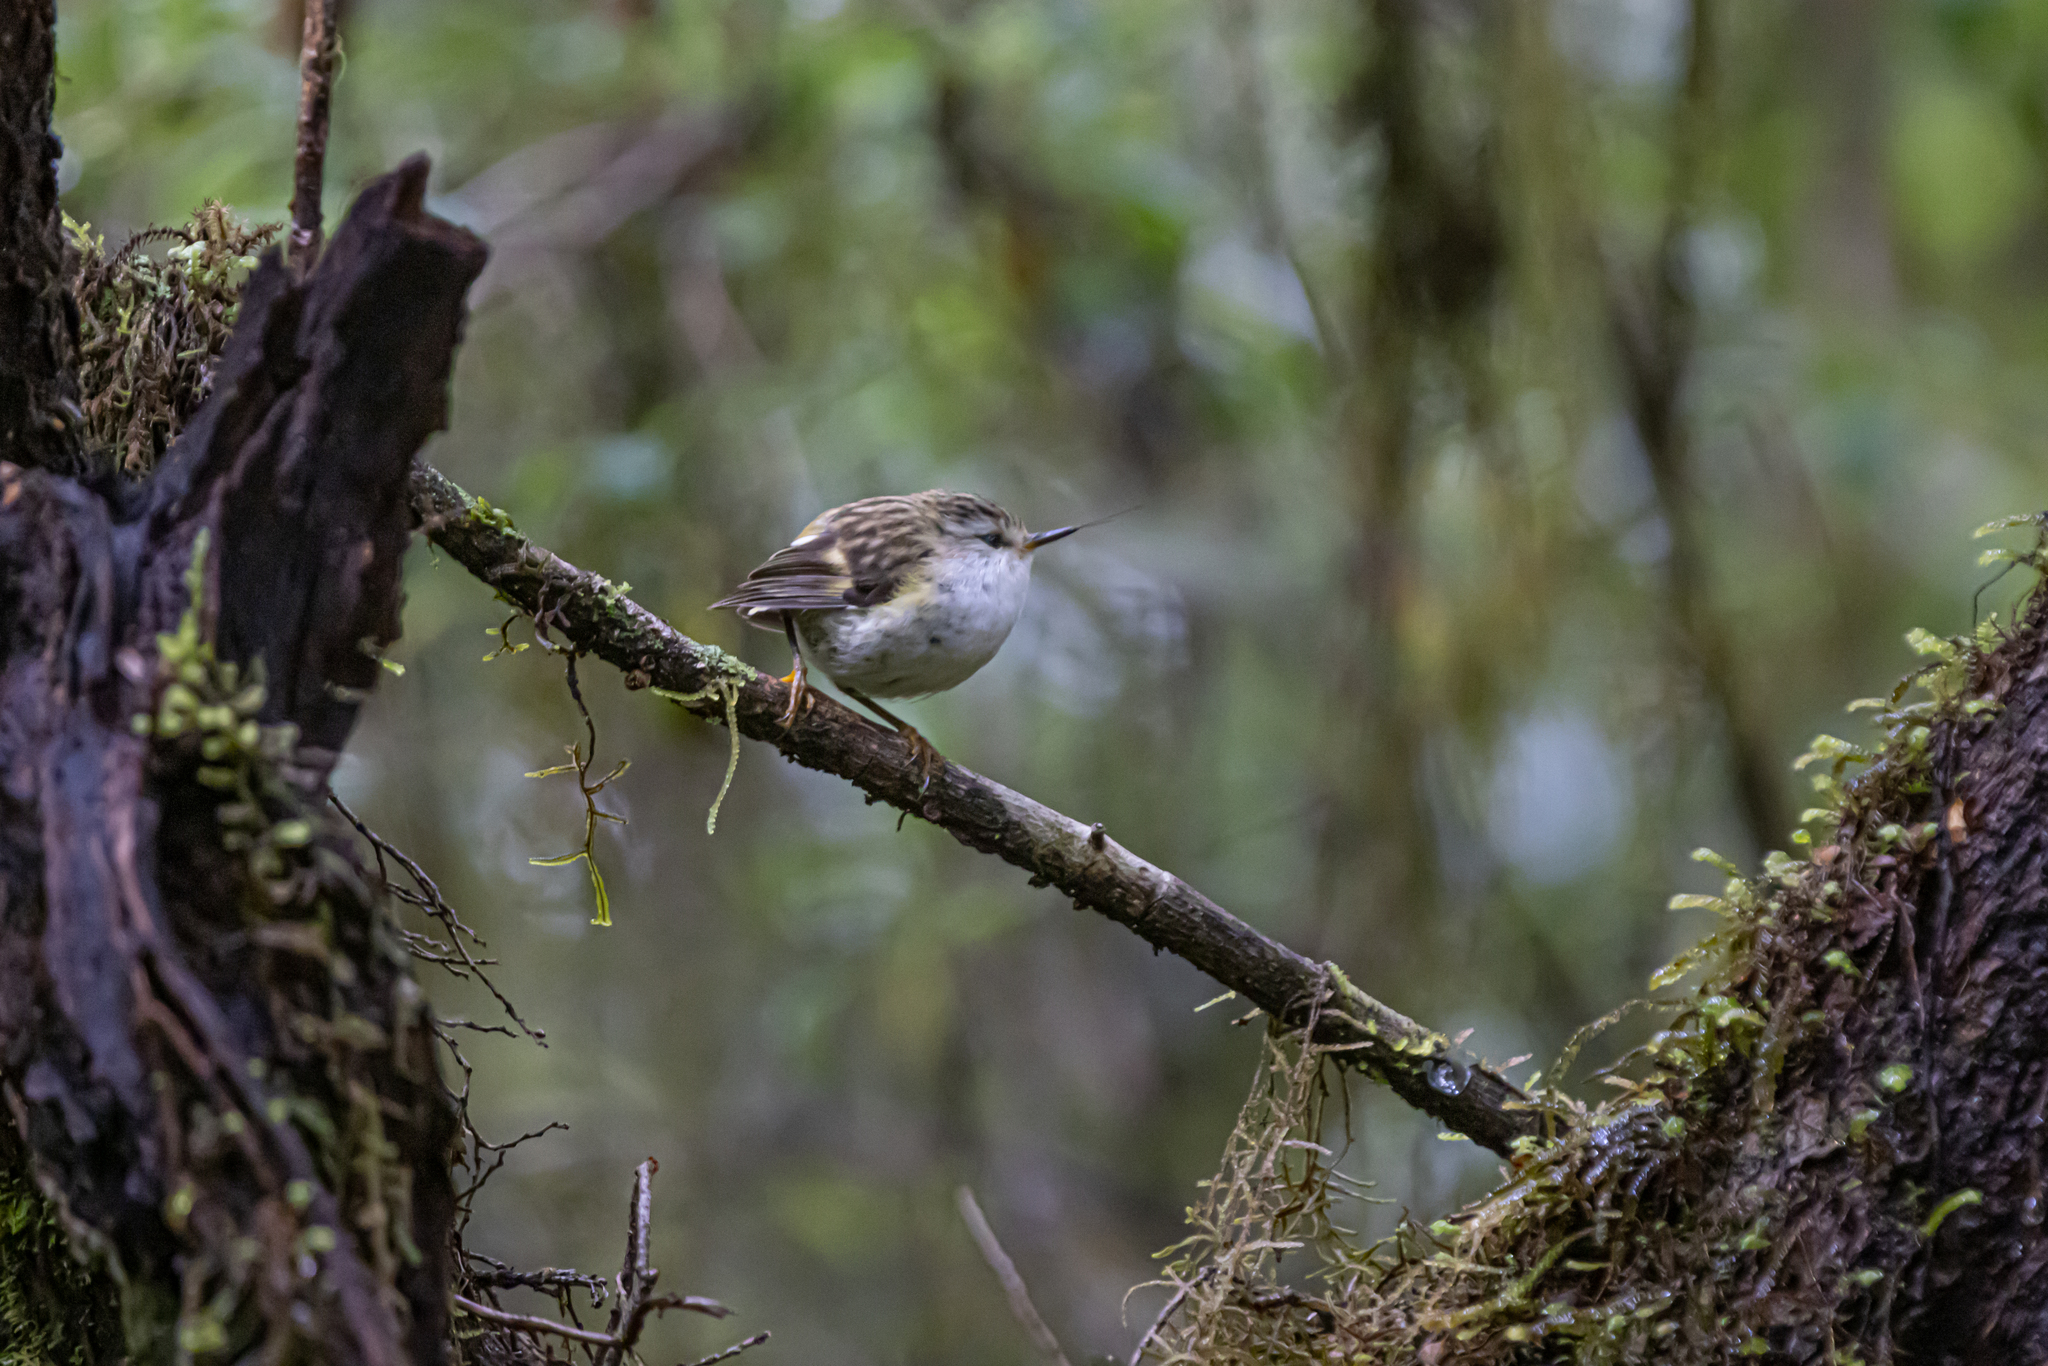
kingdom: Animalia
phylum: Chordata
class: Aves
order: Passeriformes
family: Acanthisittidae
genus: Acanthisitta
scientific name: Acanthisitta chloris
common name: Rifleman
